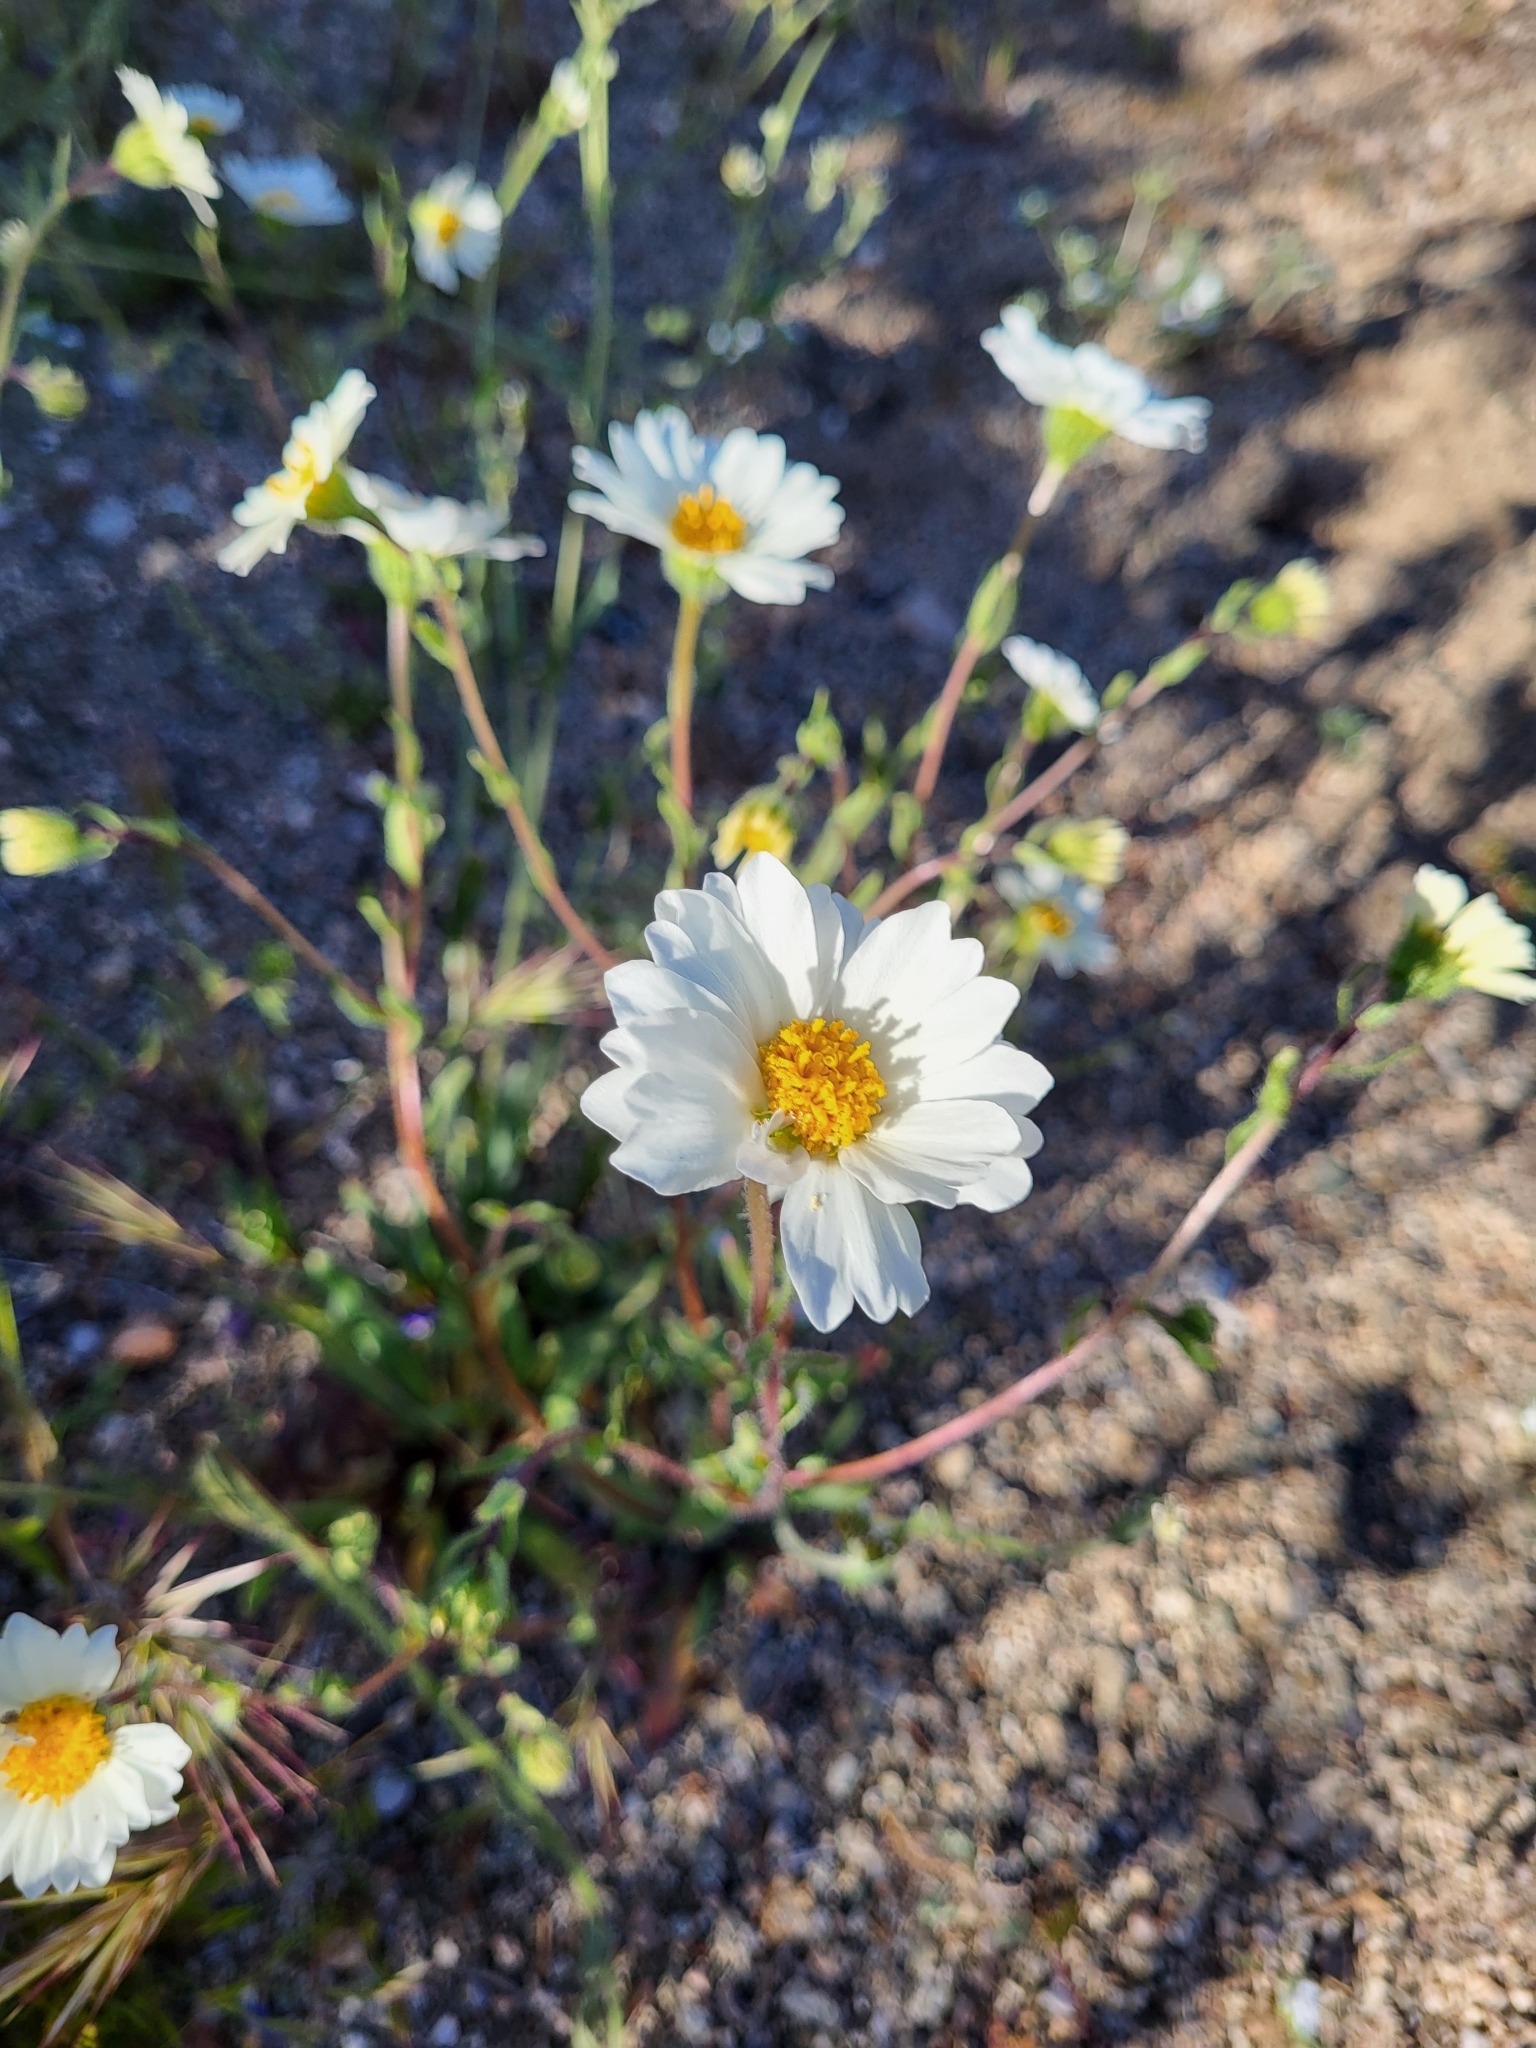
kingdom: Plantae
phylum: Tracheophyta
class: Magnoliopsida
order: Asterales
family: Asteraceae
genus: Layia
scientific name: Layia glandulosa
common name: White layia
